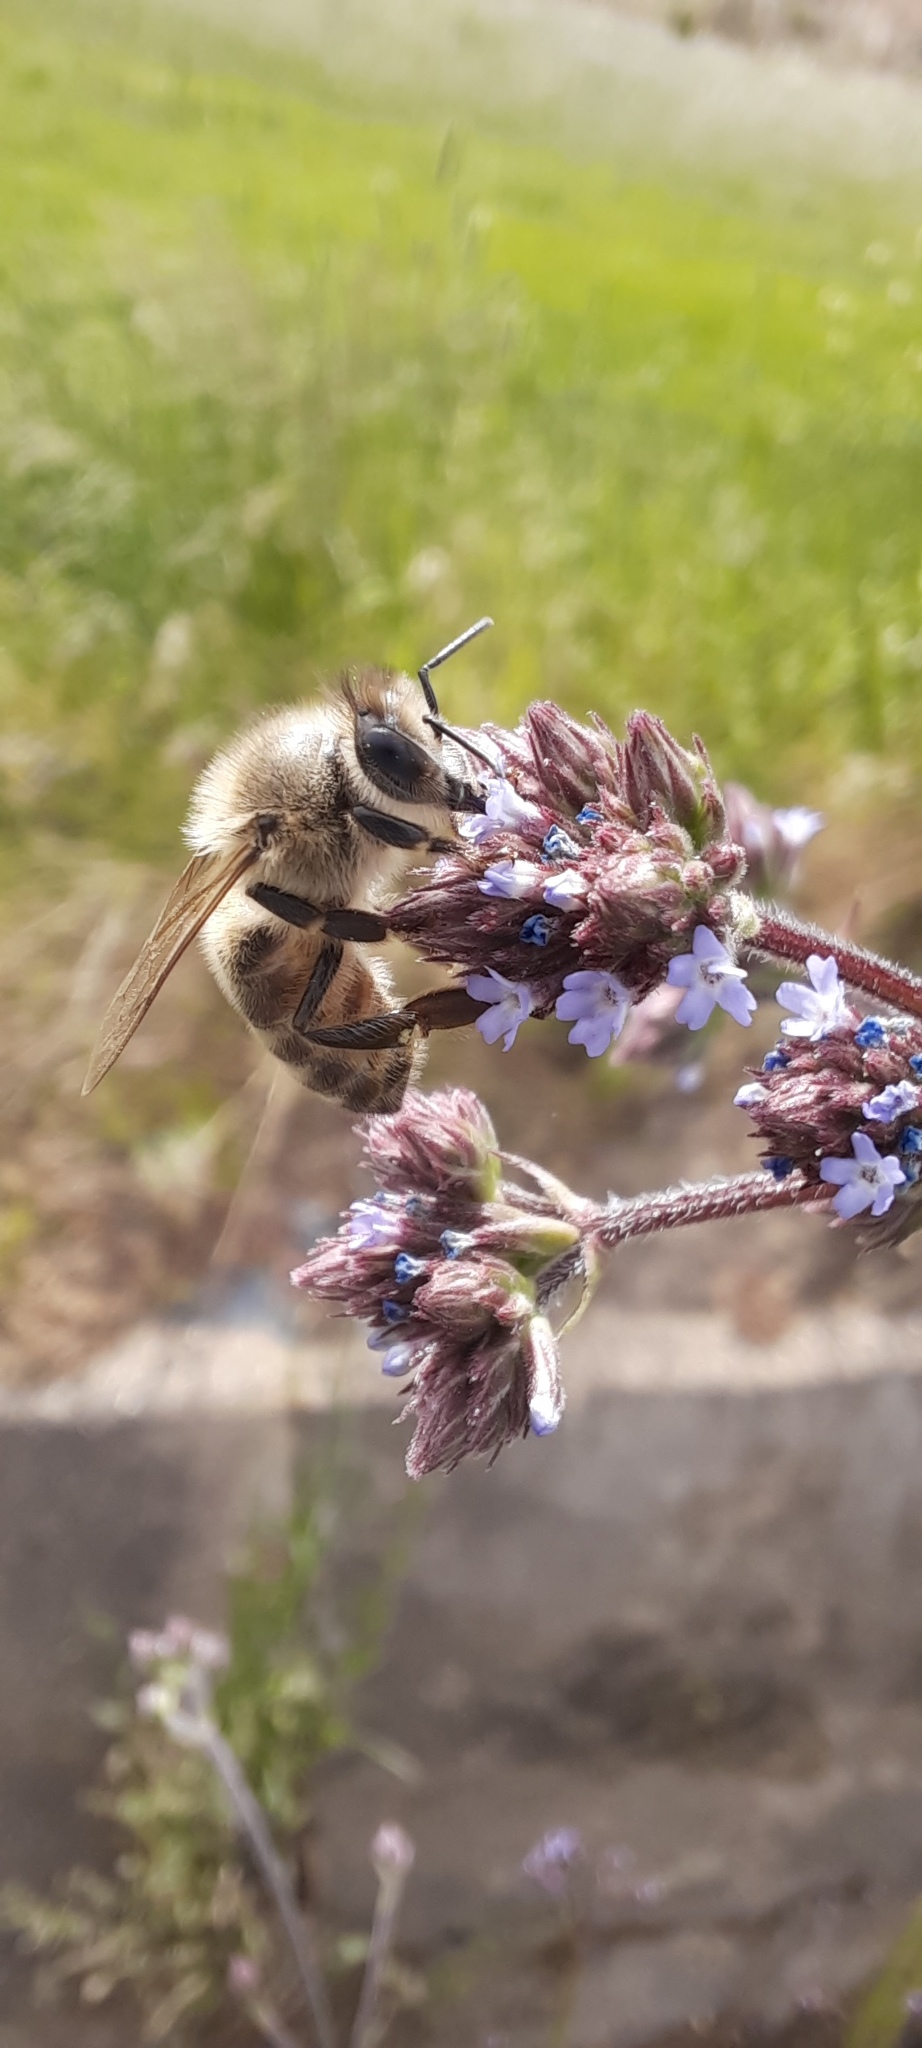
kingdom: Animalia
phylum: Arthropoda
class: Insecta
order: Hymenoptera
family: Apidae
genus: Apis
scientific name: Apis mellifera
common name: Honey bee
